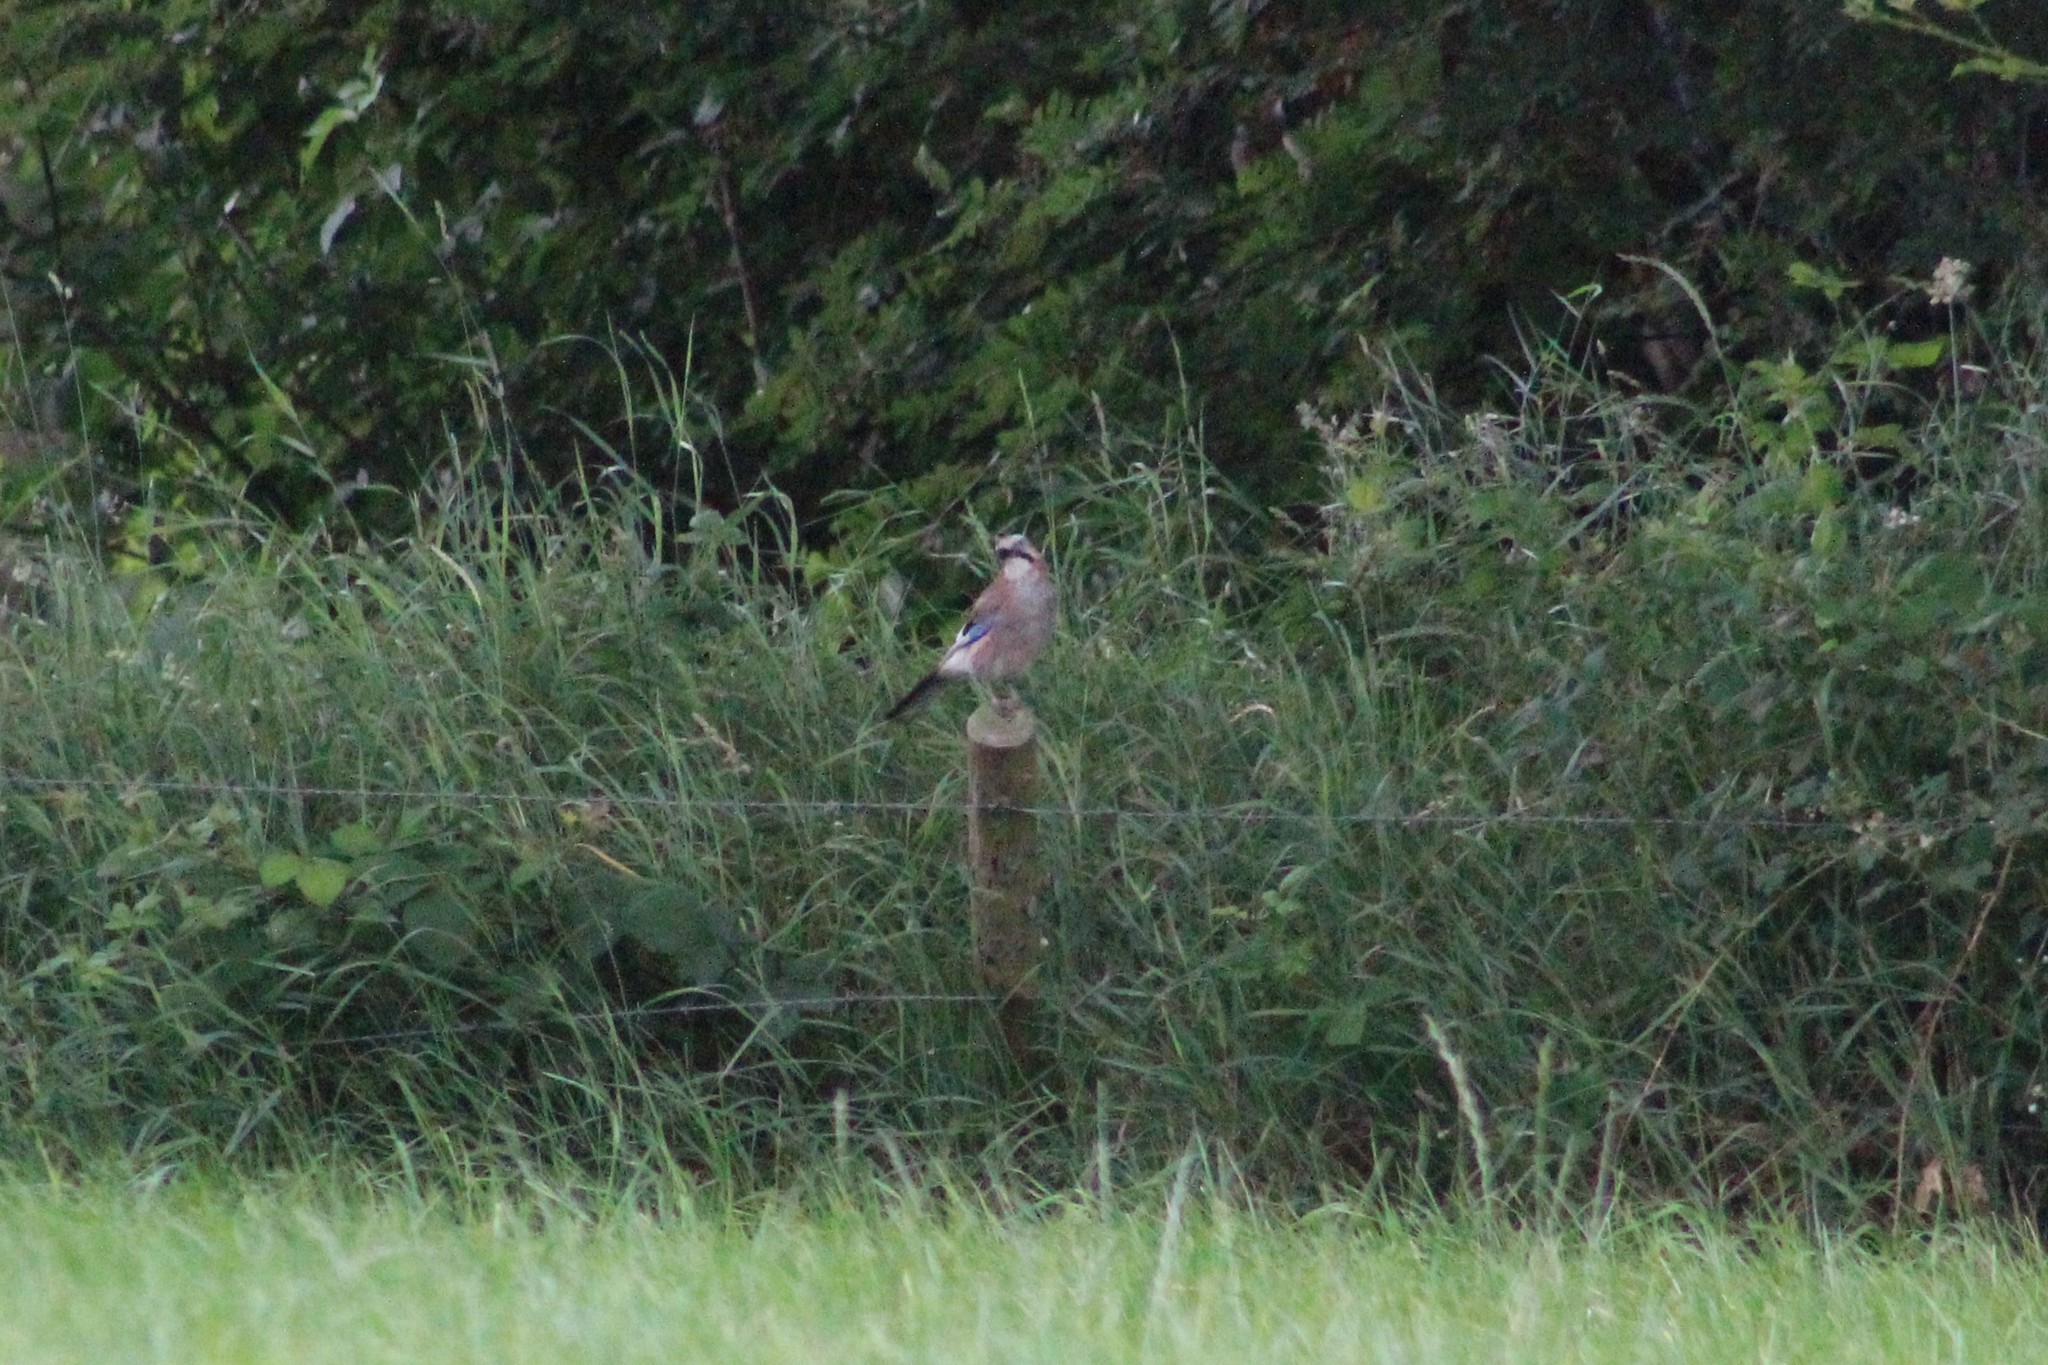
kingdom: Animalia
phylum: Chordata
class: Aves
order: Passeriformes
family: Corvidae
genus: Garrulus
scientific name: Garrulus glandarius
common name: Eurasian jay
